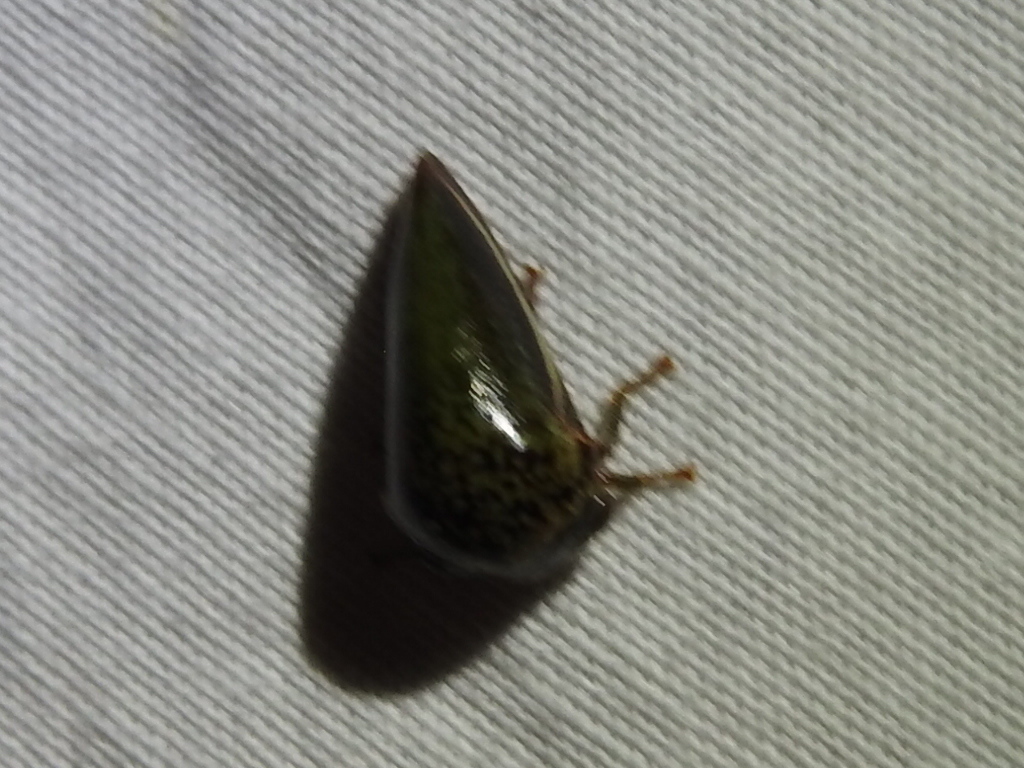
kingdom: Animalia
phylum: Arthropoda
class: Insecta
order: Hemiptera
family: Membracidae
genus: Stictopelta
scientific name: Stictopelta marmorata
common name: Treehopper
